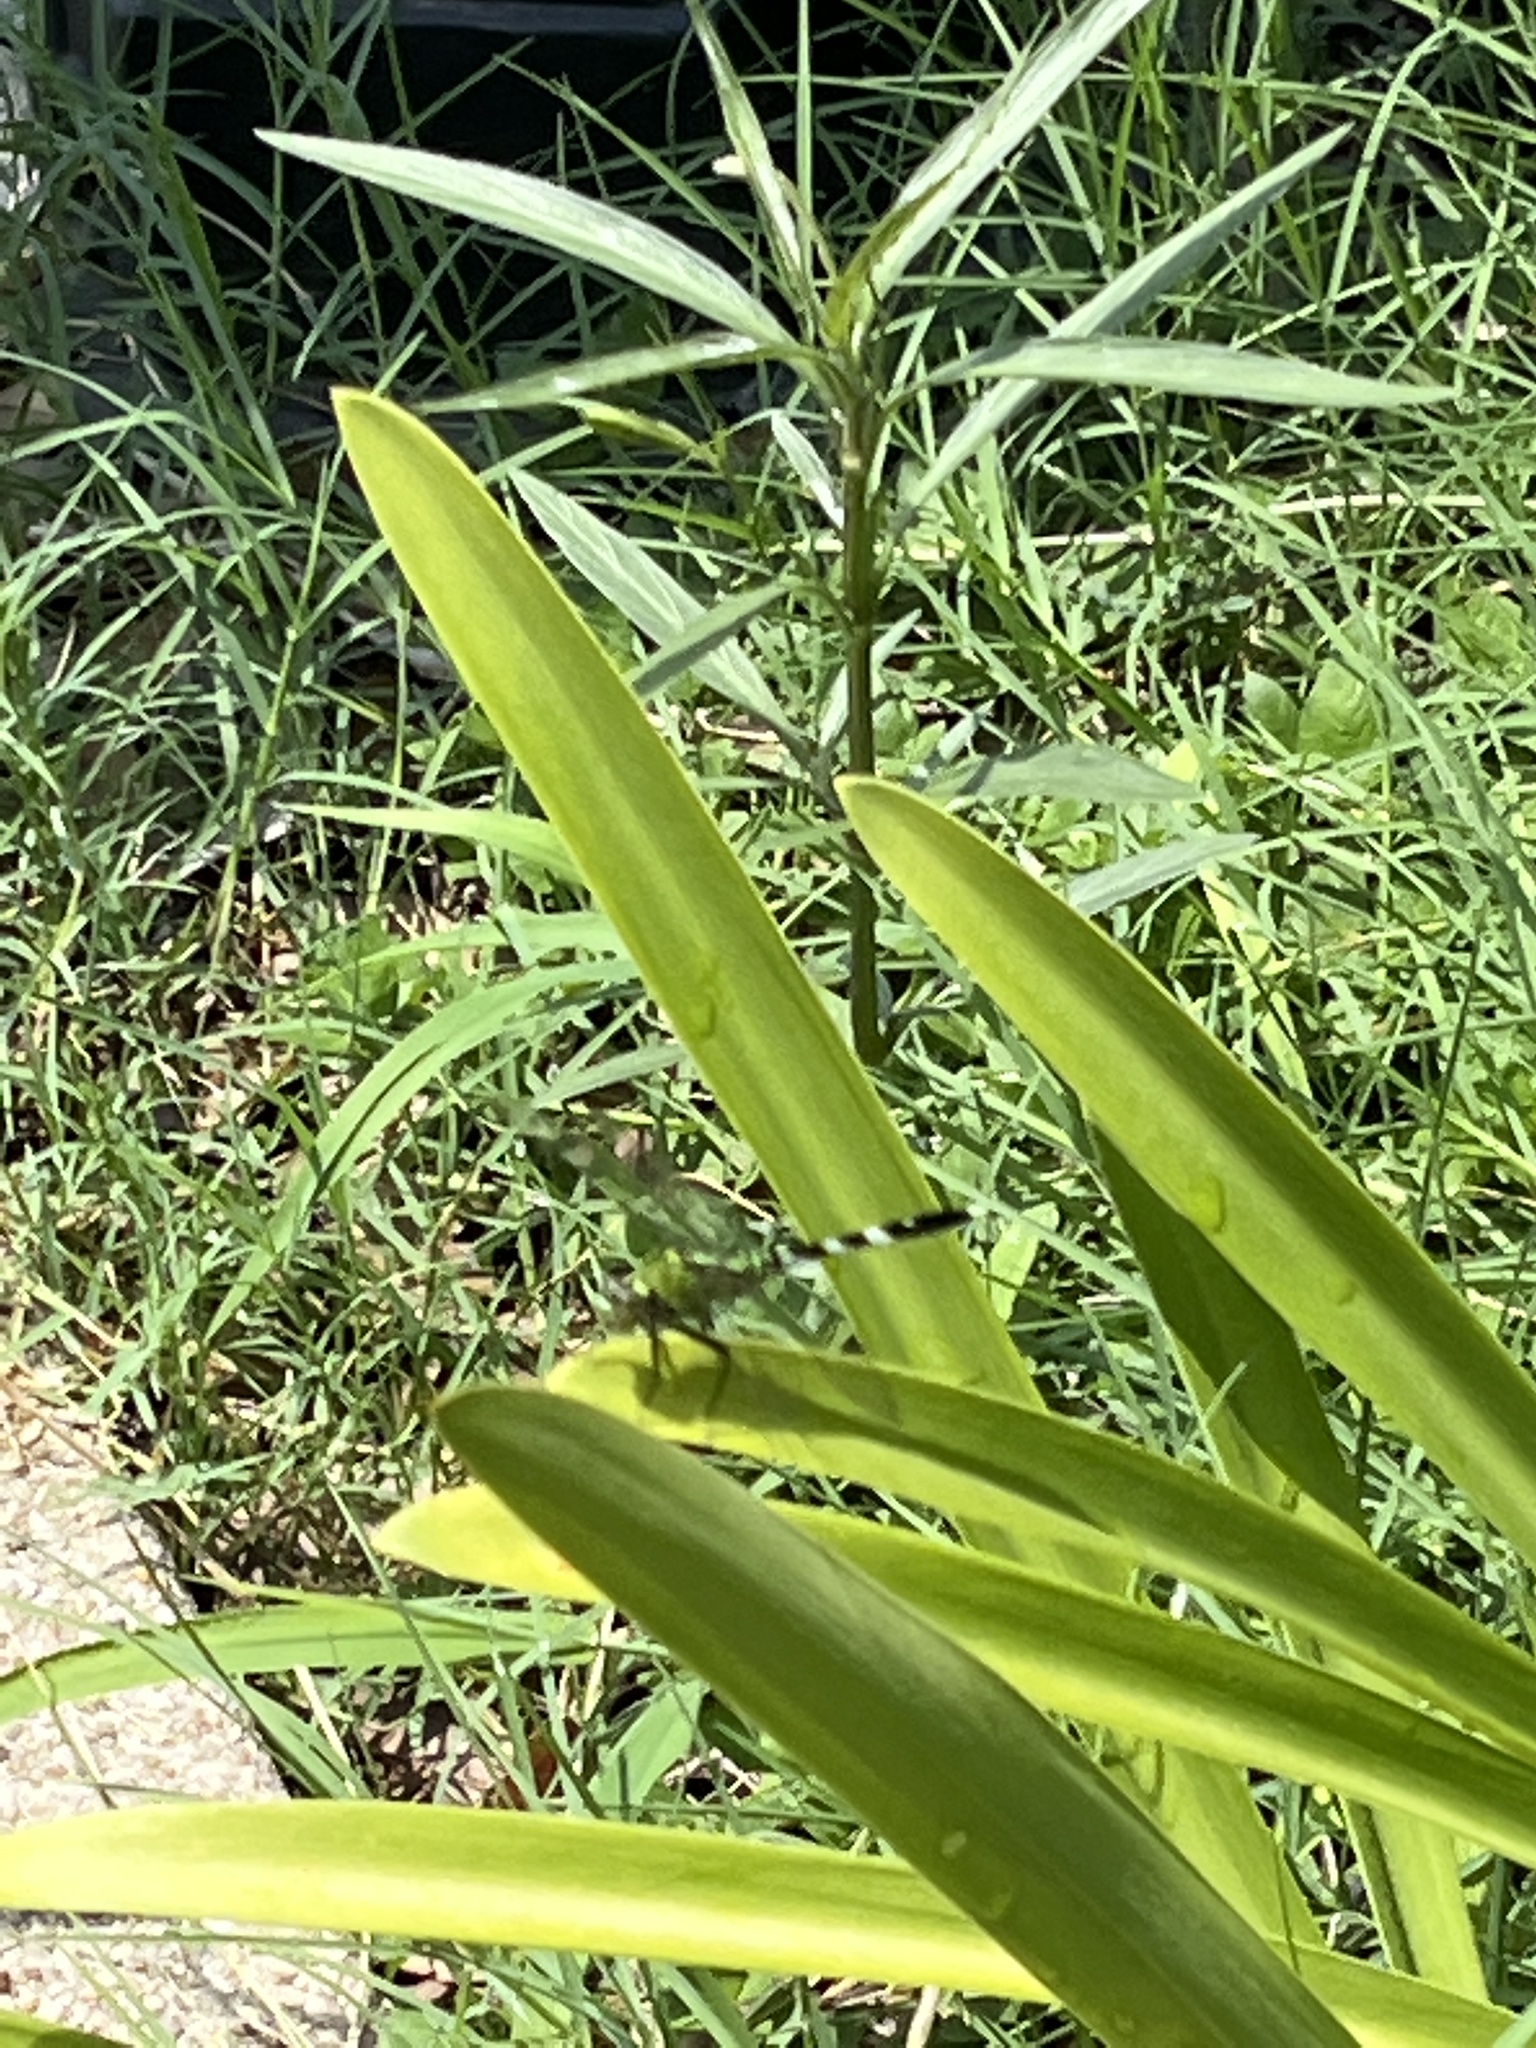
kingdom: Animalia
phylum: Arthropoda
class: Insecta
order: Odonata
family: Libellulidae
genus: Erythemis
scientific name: Erythemis simplicicollis
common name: Eastern pondhawk
